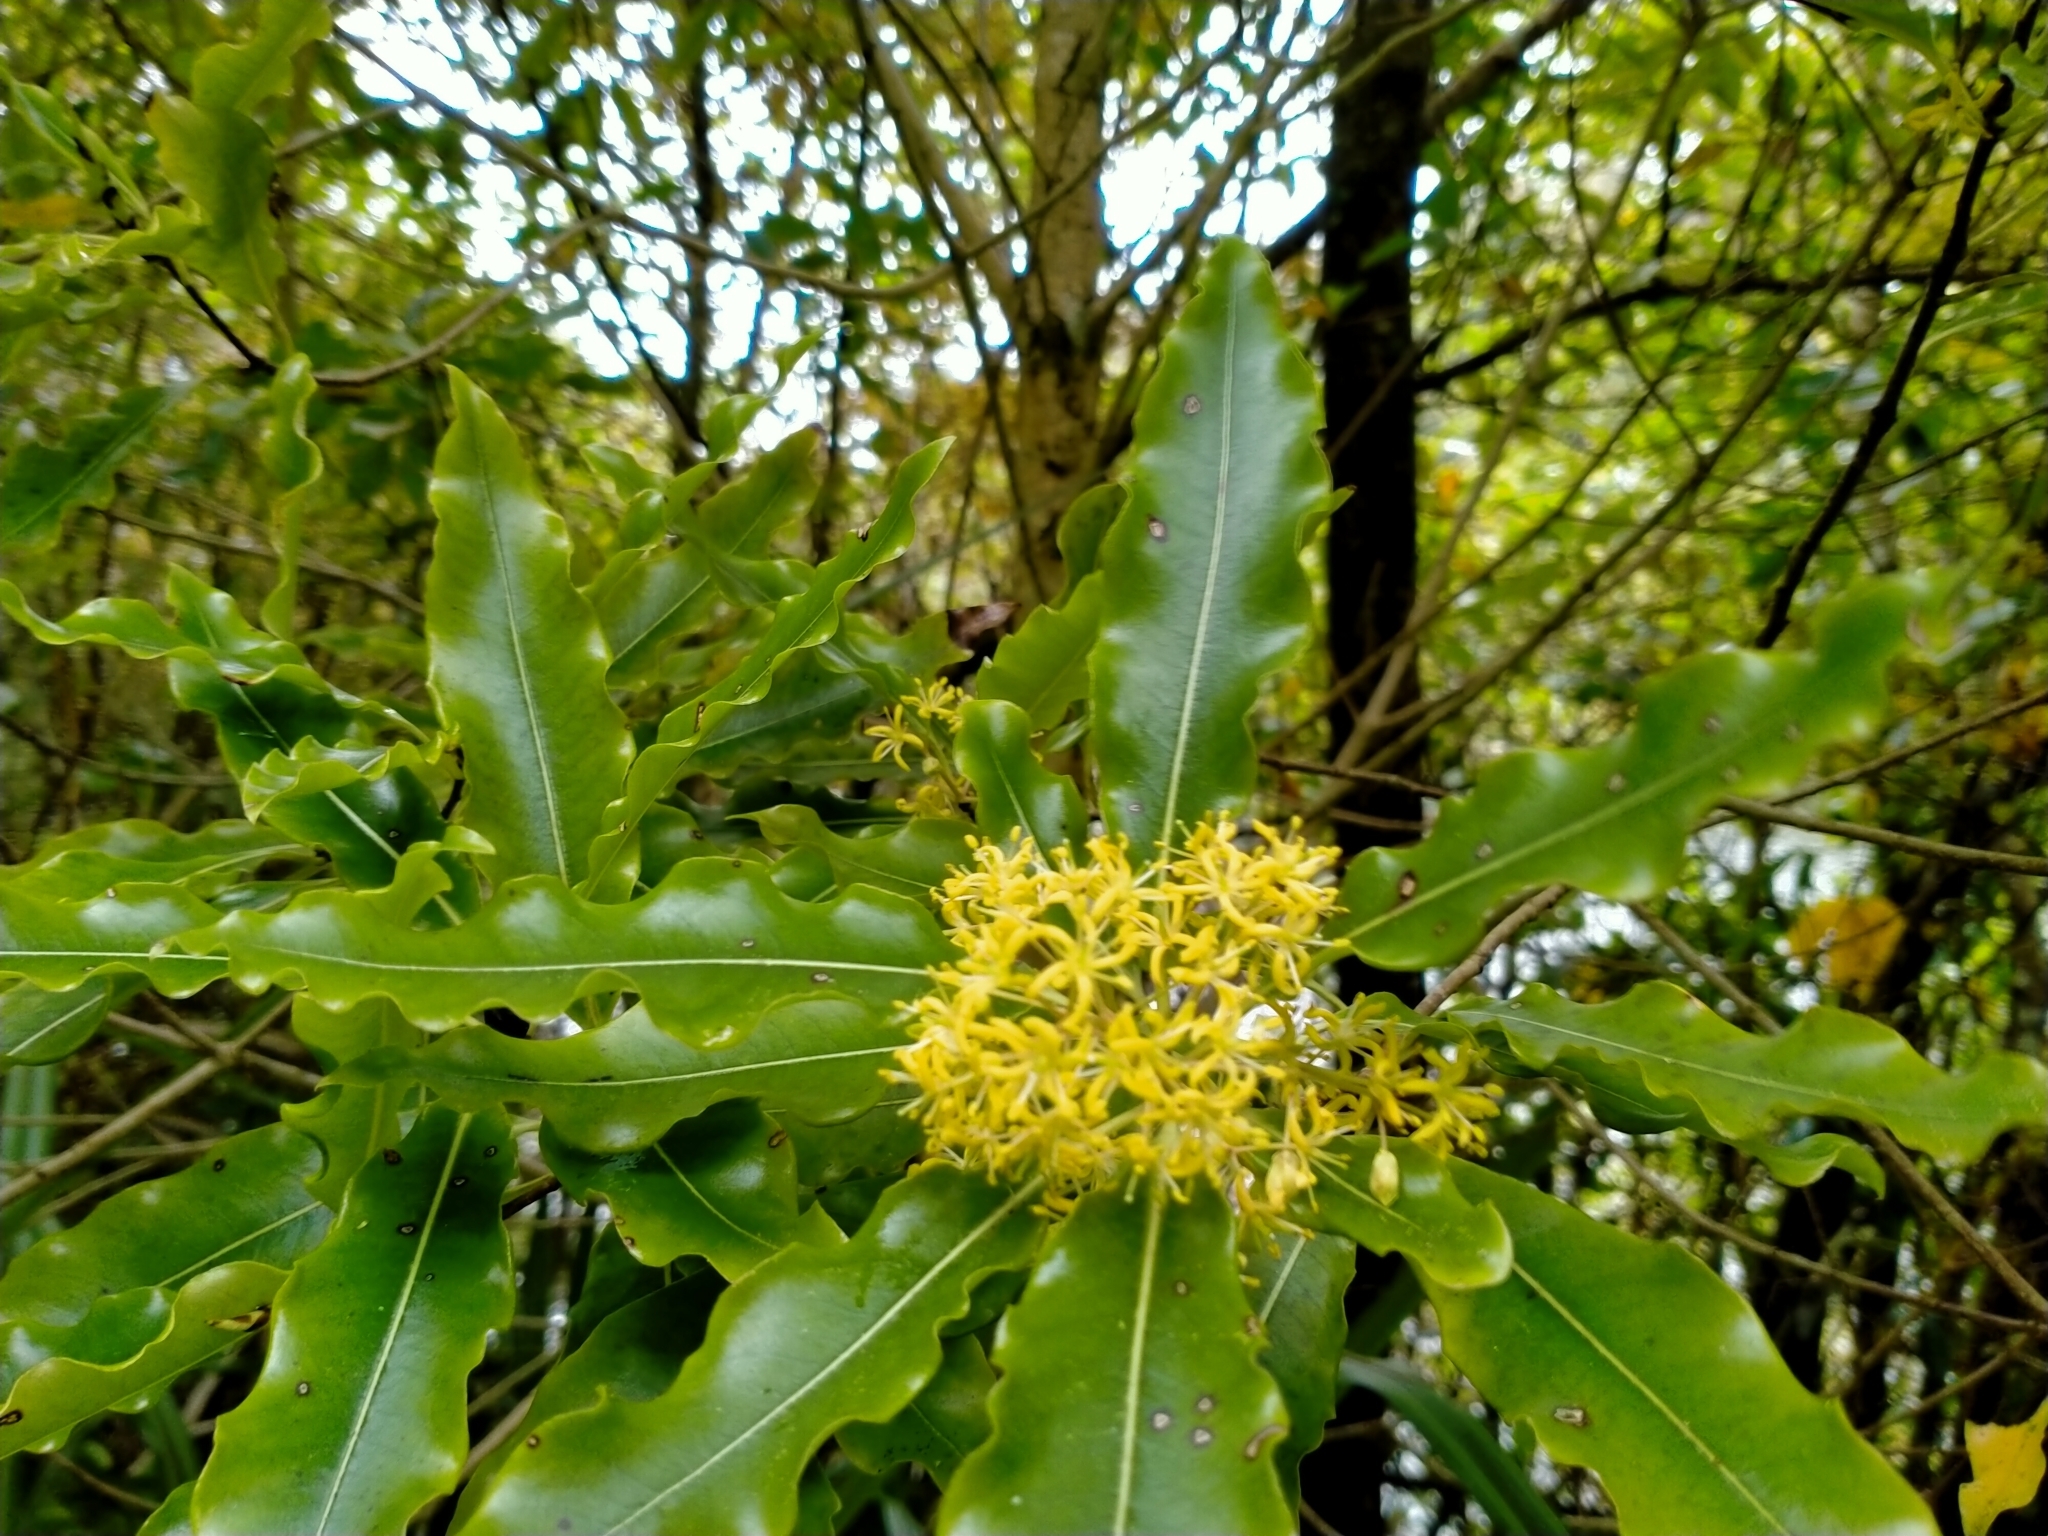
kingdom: Plantae
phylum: Tracheophyta
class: Magnoliopsida
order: Apiales
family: Pittosporaceae
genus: Pittosporum
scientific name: Pittosporum eugenioides
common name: Lemonwood
